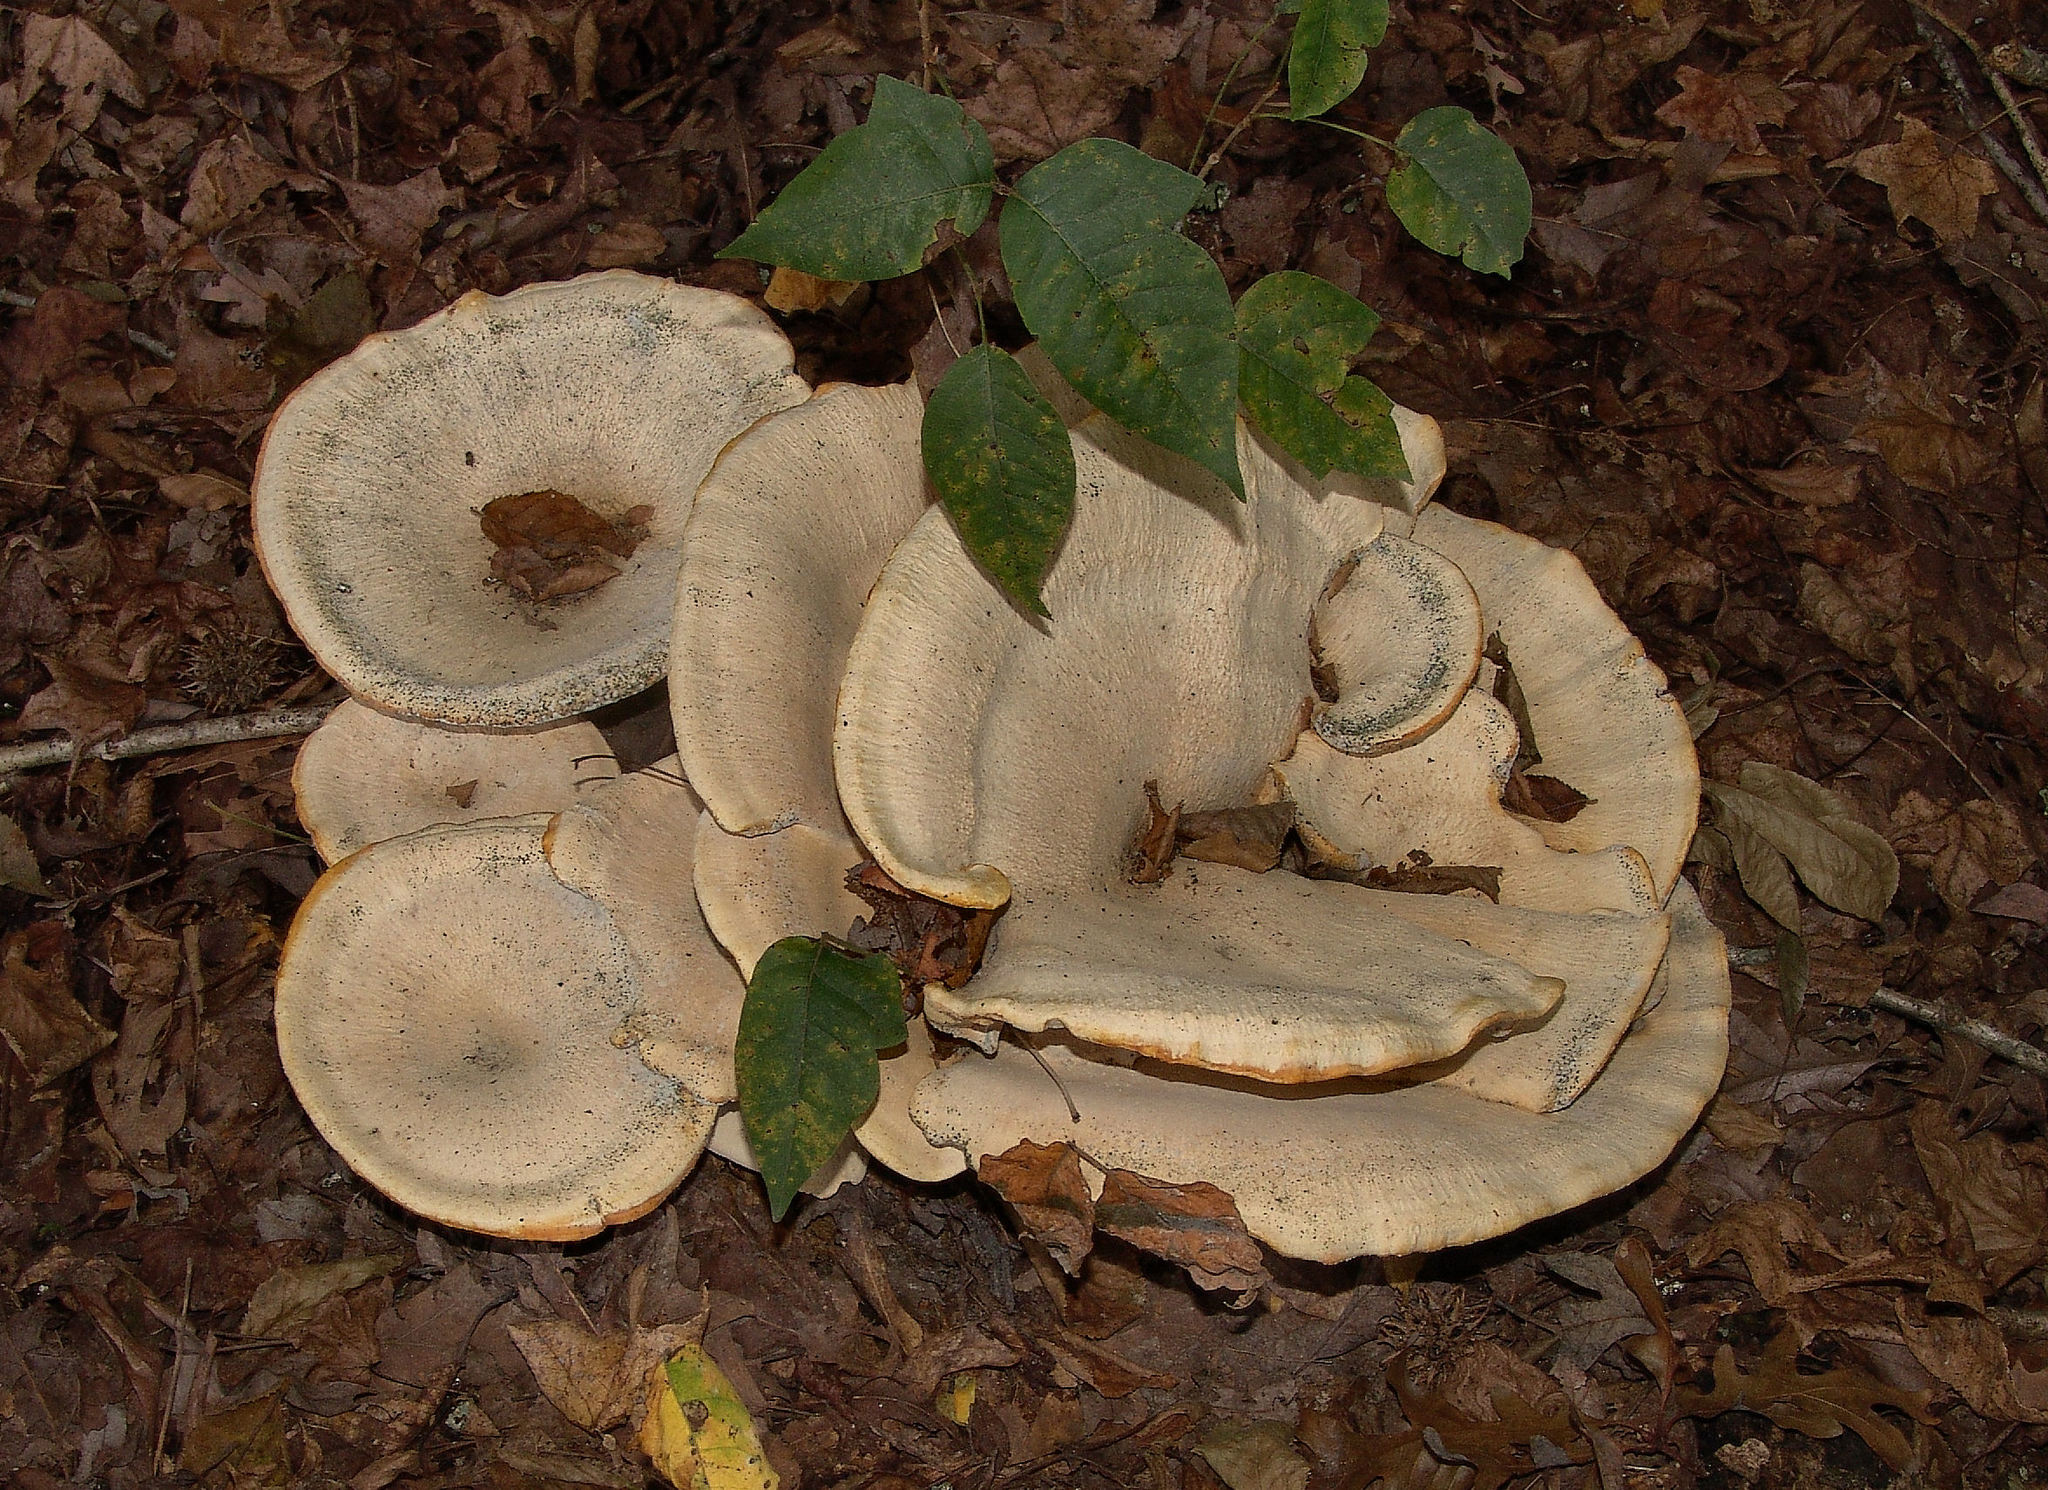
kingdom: Fungi
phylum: Basidiomycota
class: Agaricomycetes
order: Russulales
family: Bondarzewiaceae
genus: Bondarzewia
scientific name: Bondarzewia berkeleyi
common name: Berkeley's polypore
